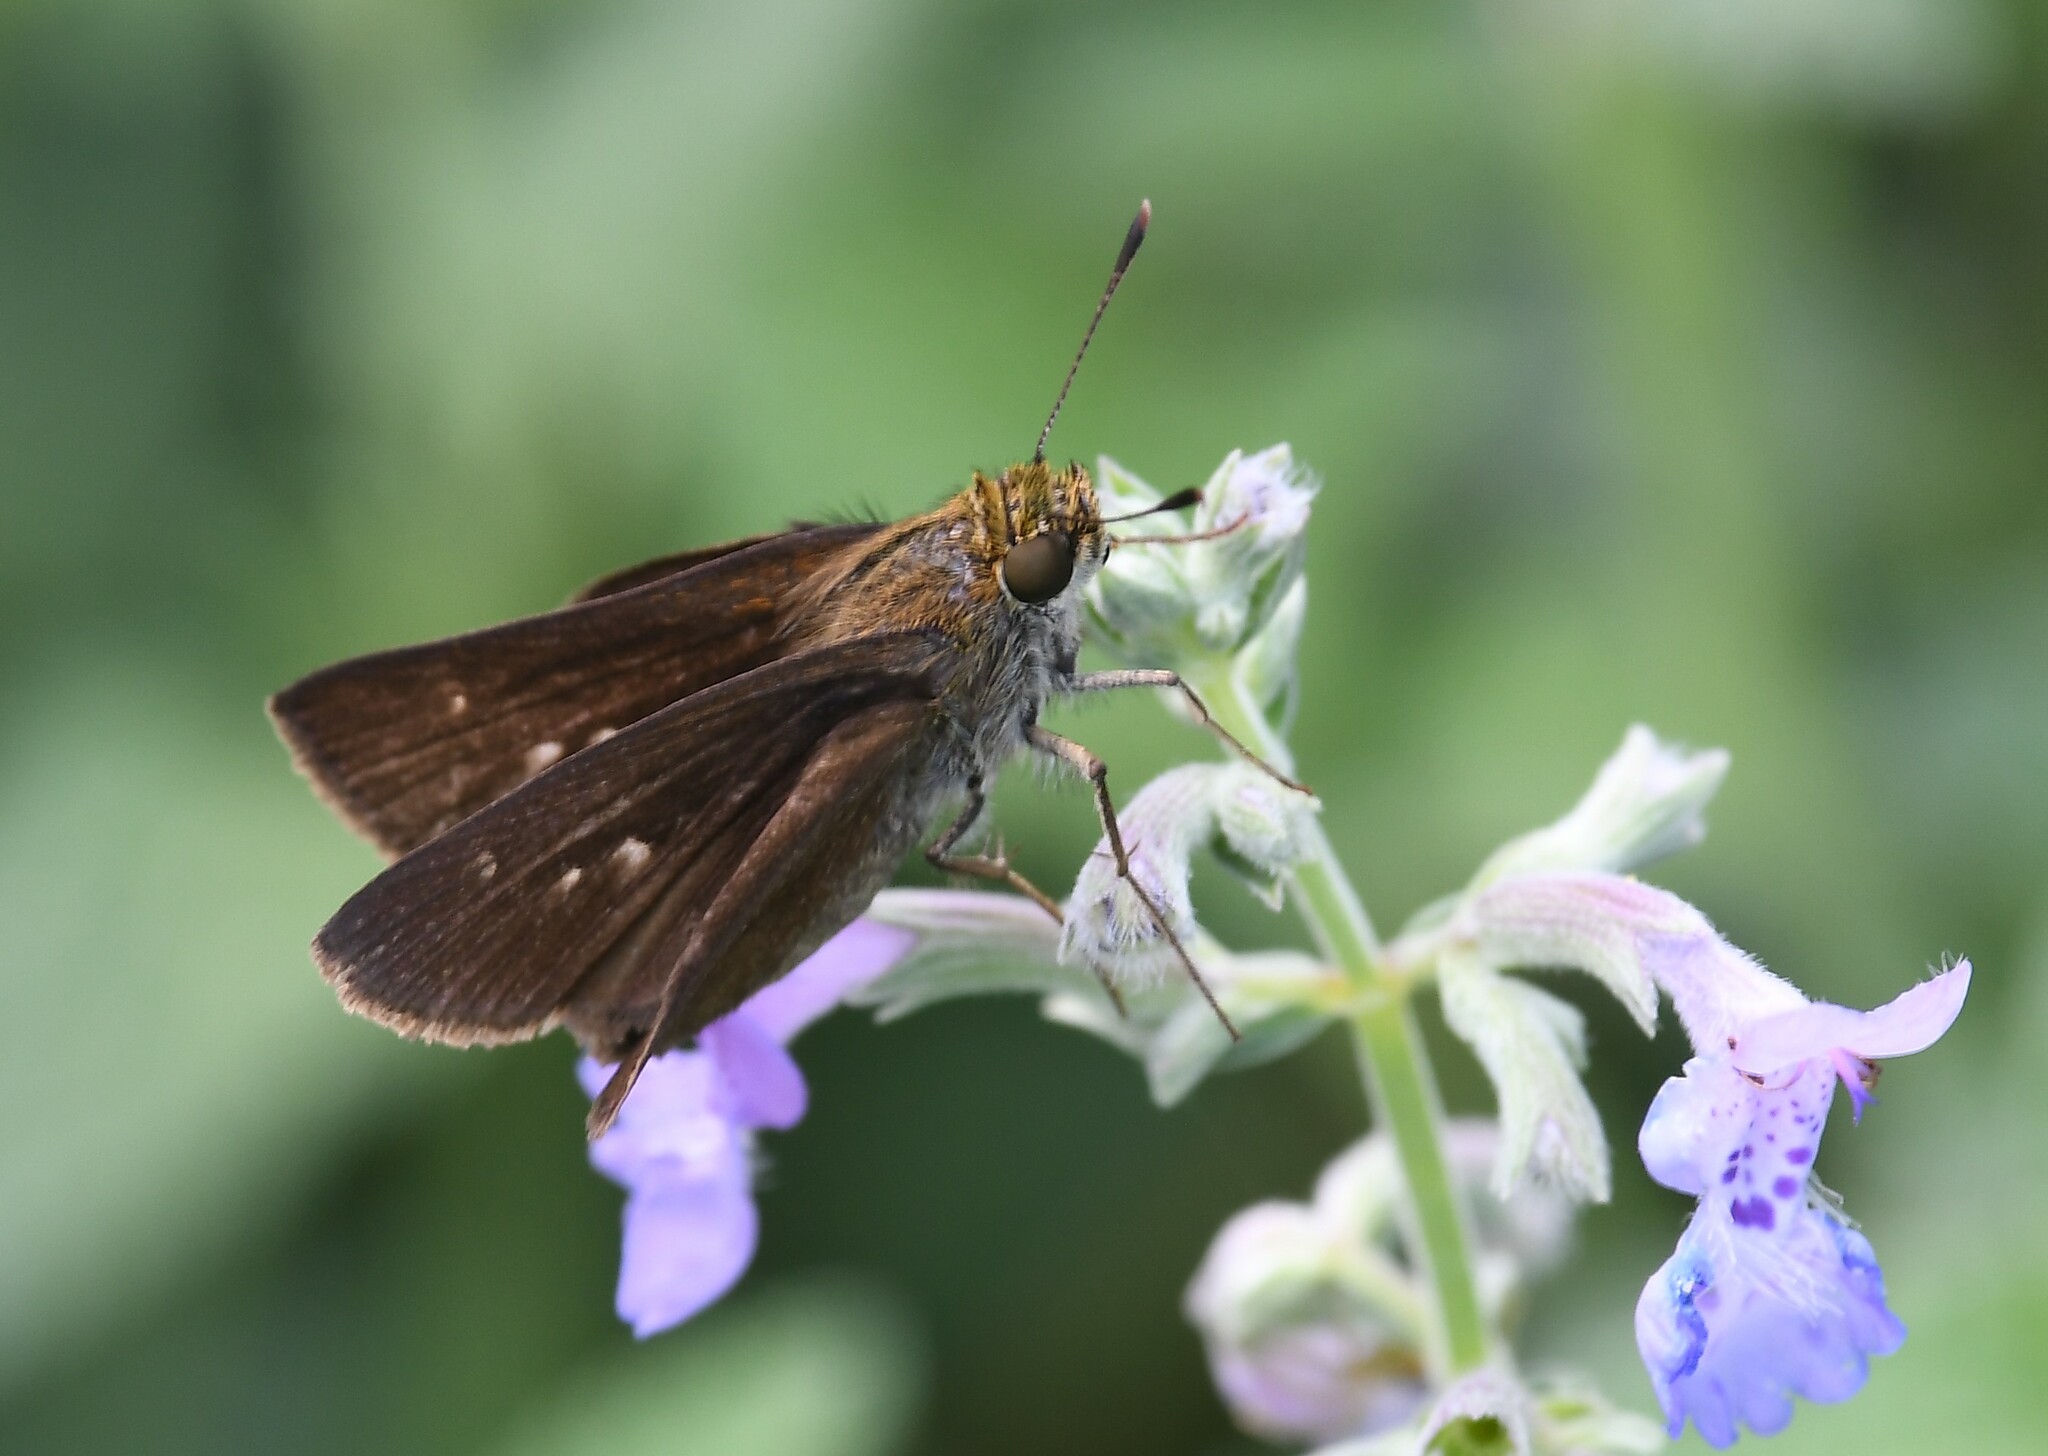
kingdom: Animalia
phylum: Arthropoda
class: Insecta
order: Lepidoptera
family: Hesperiidae
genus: Euphyes
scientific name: Euphyes vestris
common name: Dun skipper
